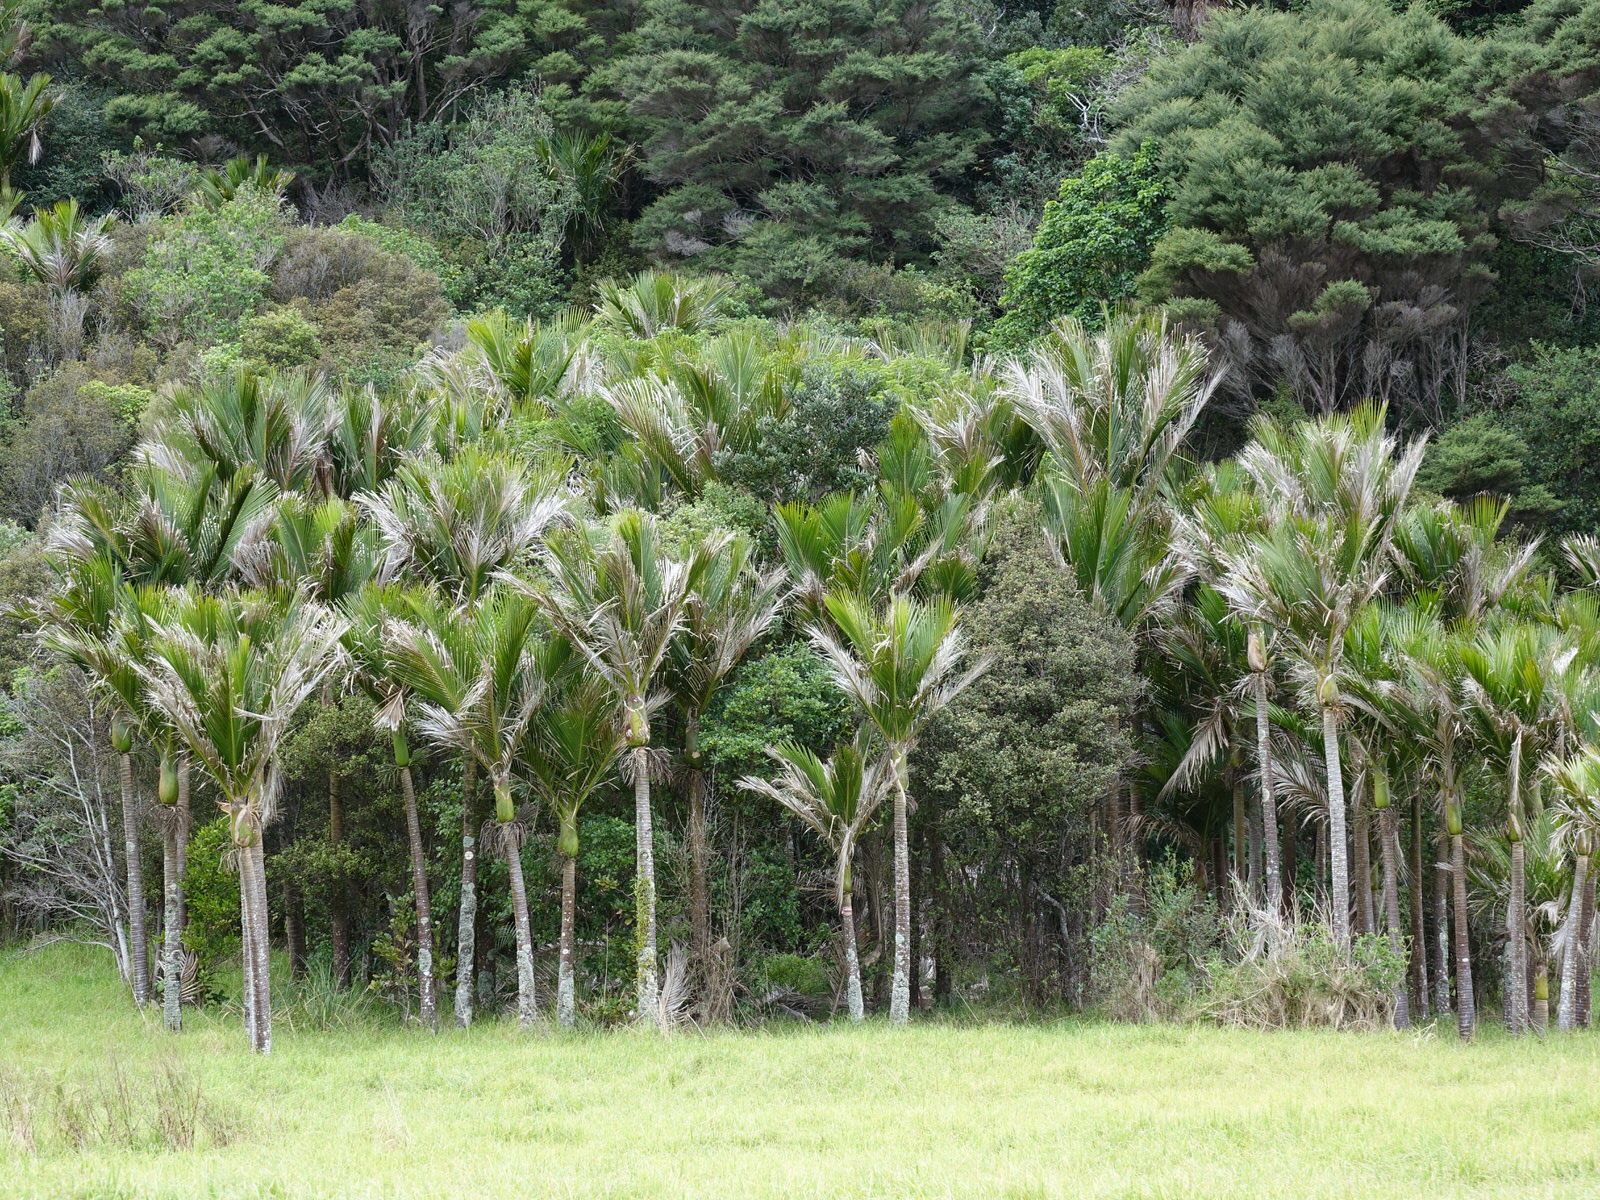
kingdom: Plantae
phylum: Tracheophyta
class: Liliopsida
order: Arecales
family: Arecaceae
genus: Rhopalostylis
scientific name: Rhopalostylis sapida
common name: Feather-duster palm
